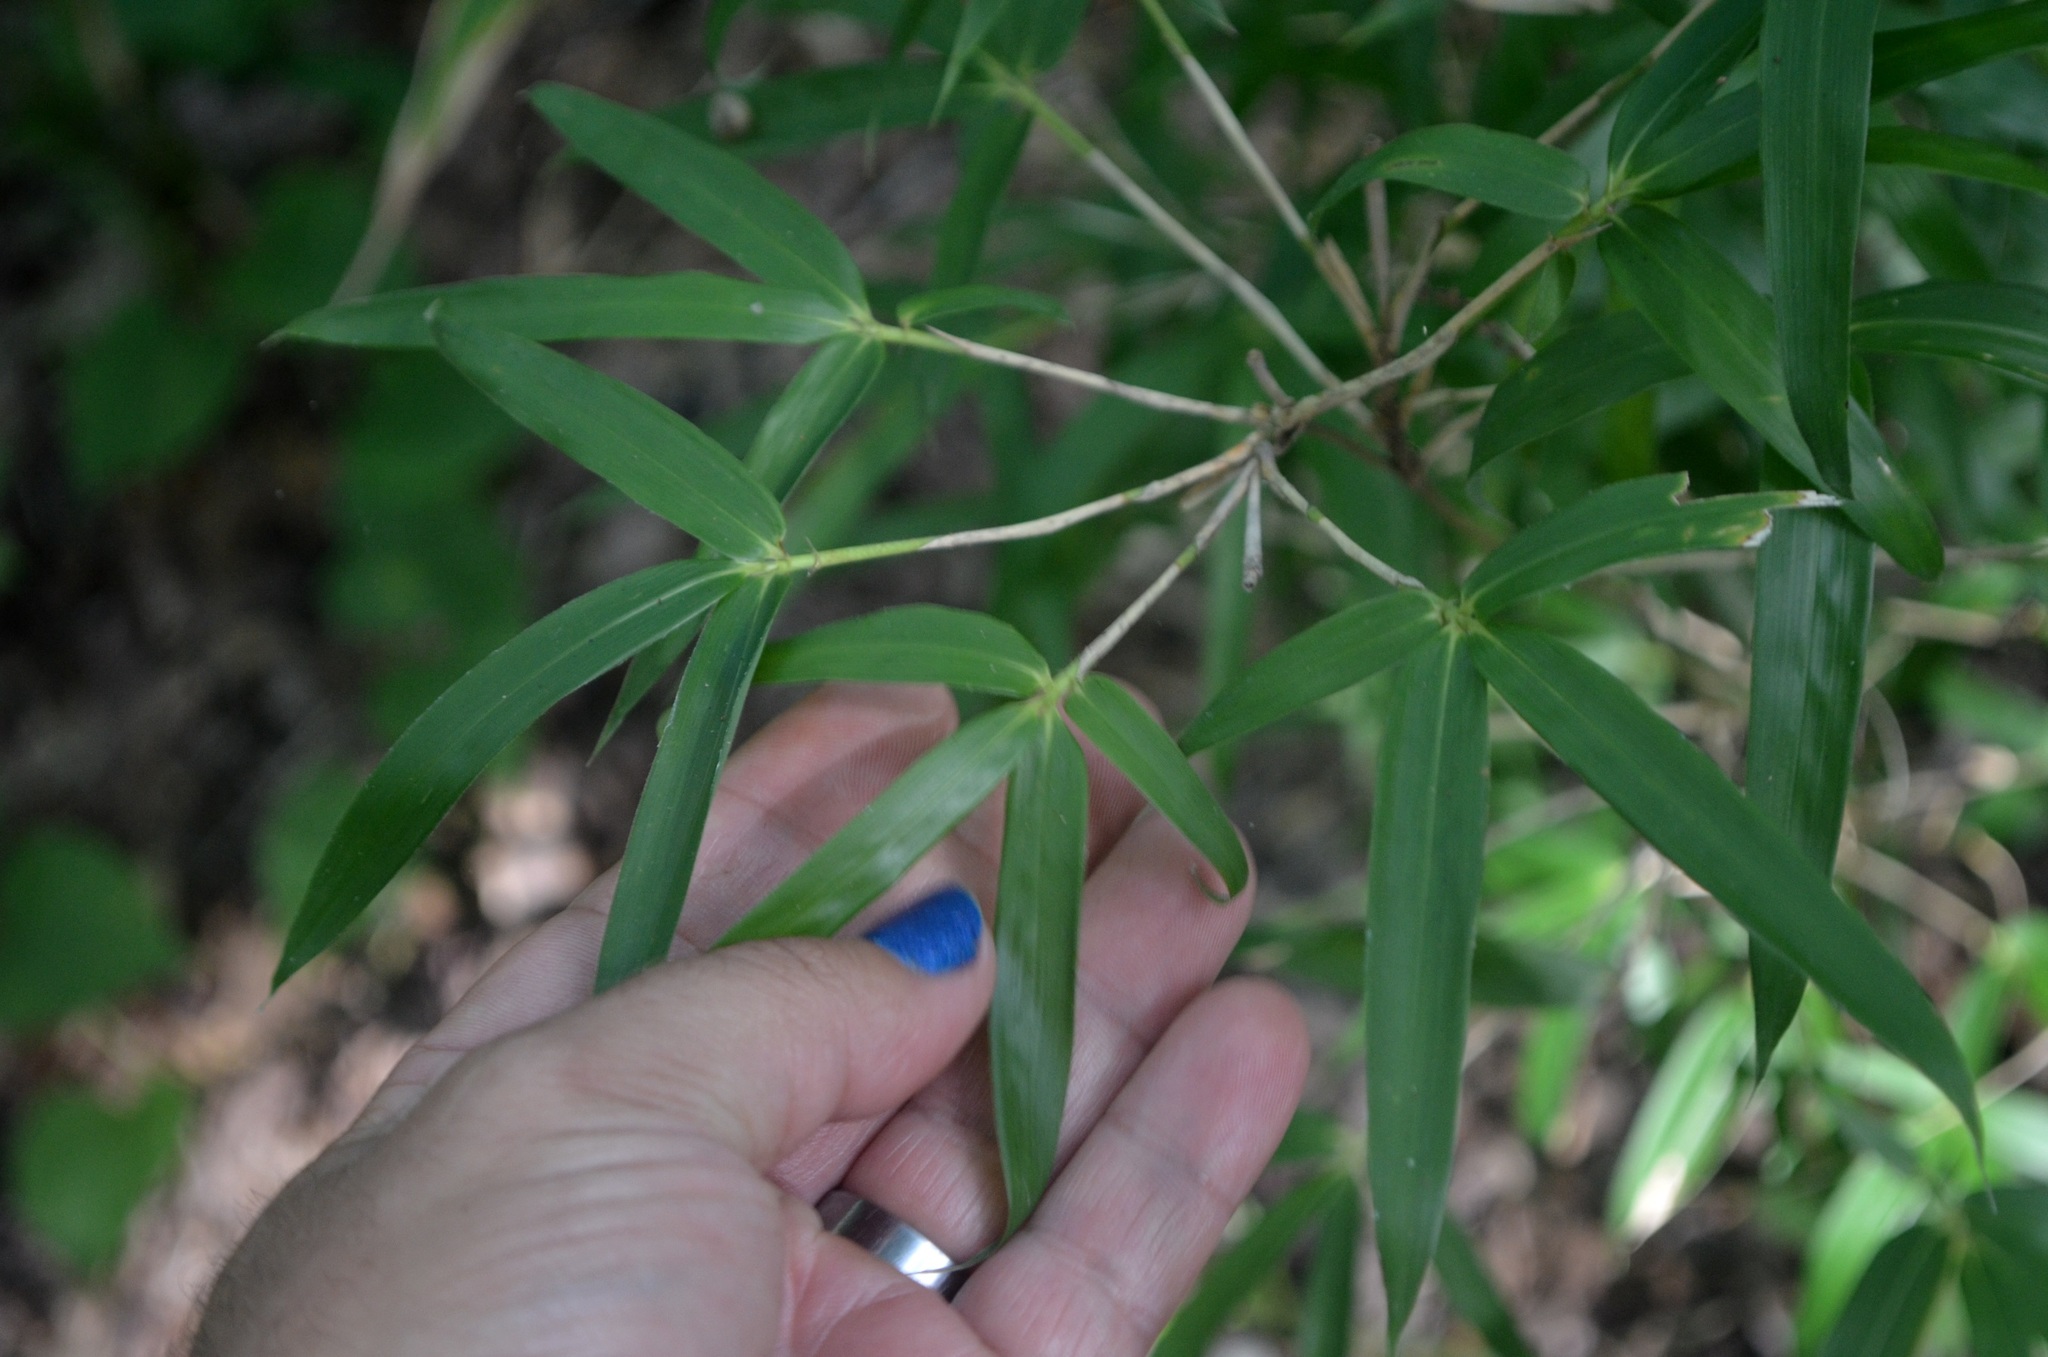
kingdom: Plantae
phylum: Tracheophyta
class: Liliopsida
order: Poales
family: Poaceae
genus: Arundinaria
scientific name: Arundinaria gigantea
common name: Giant cane
